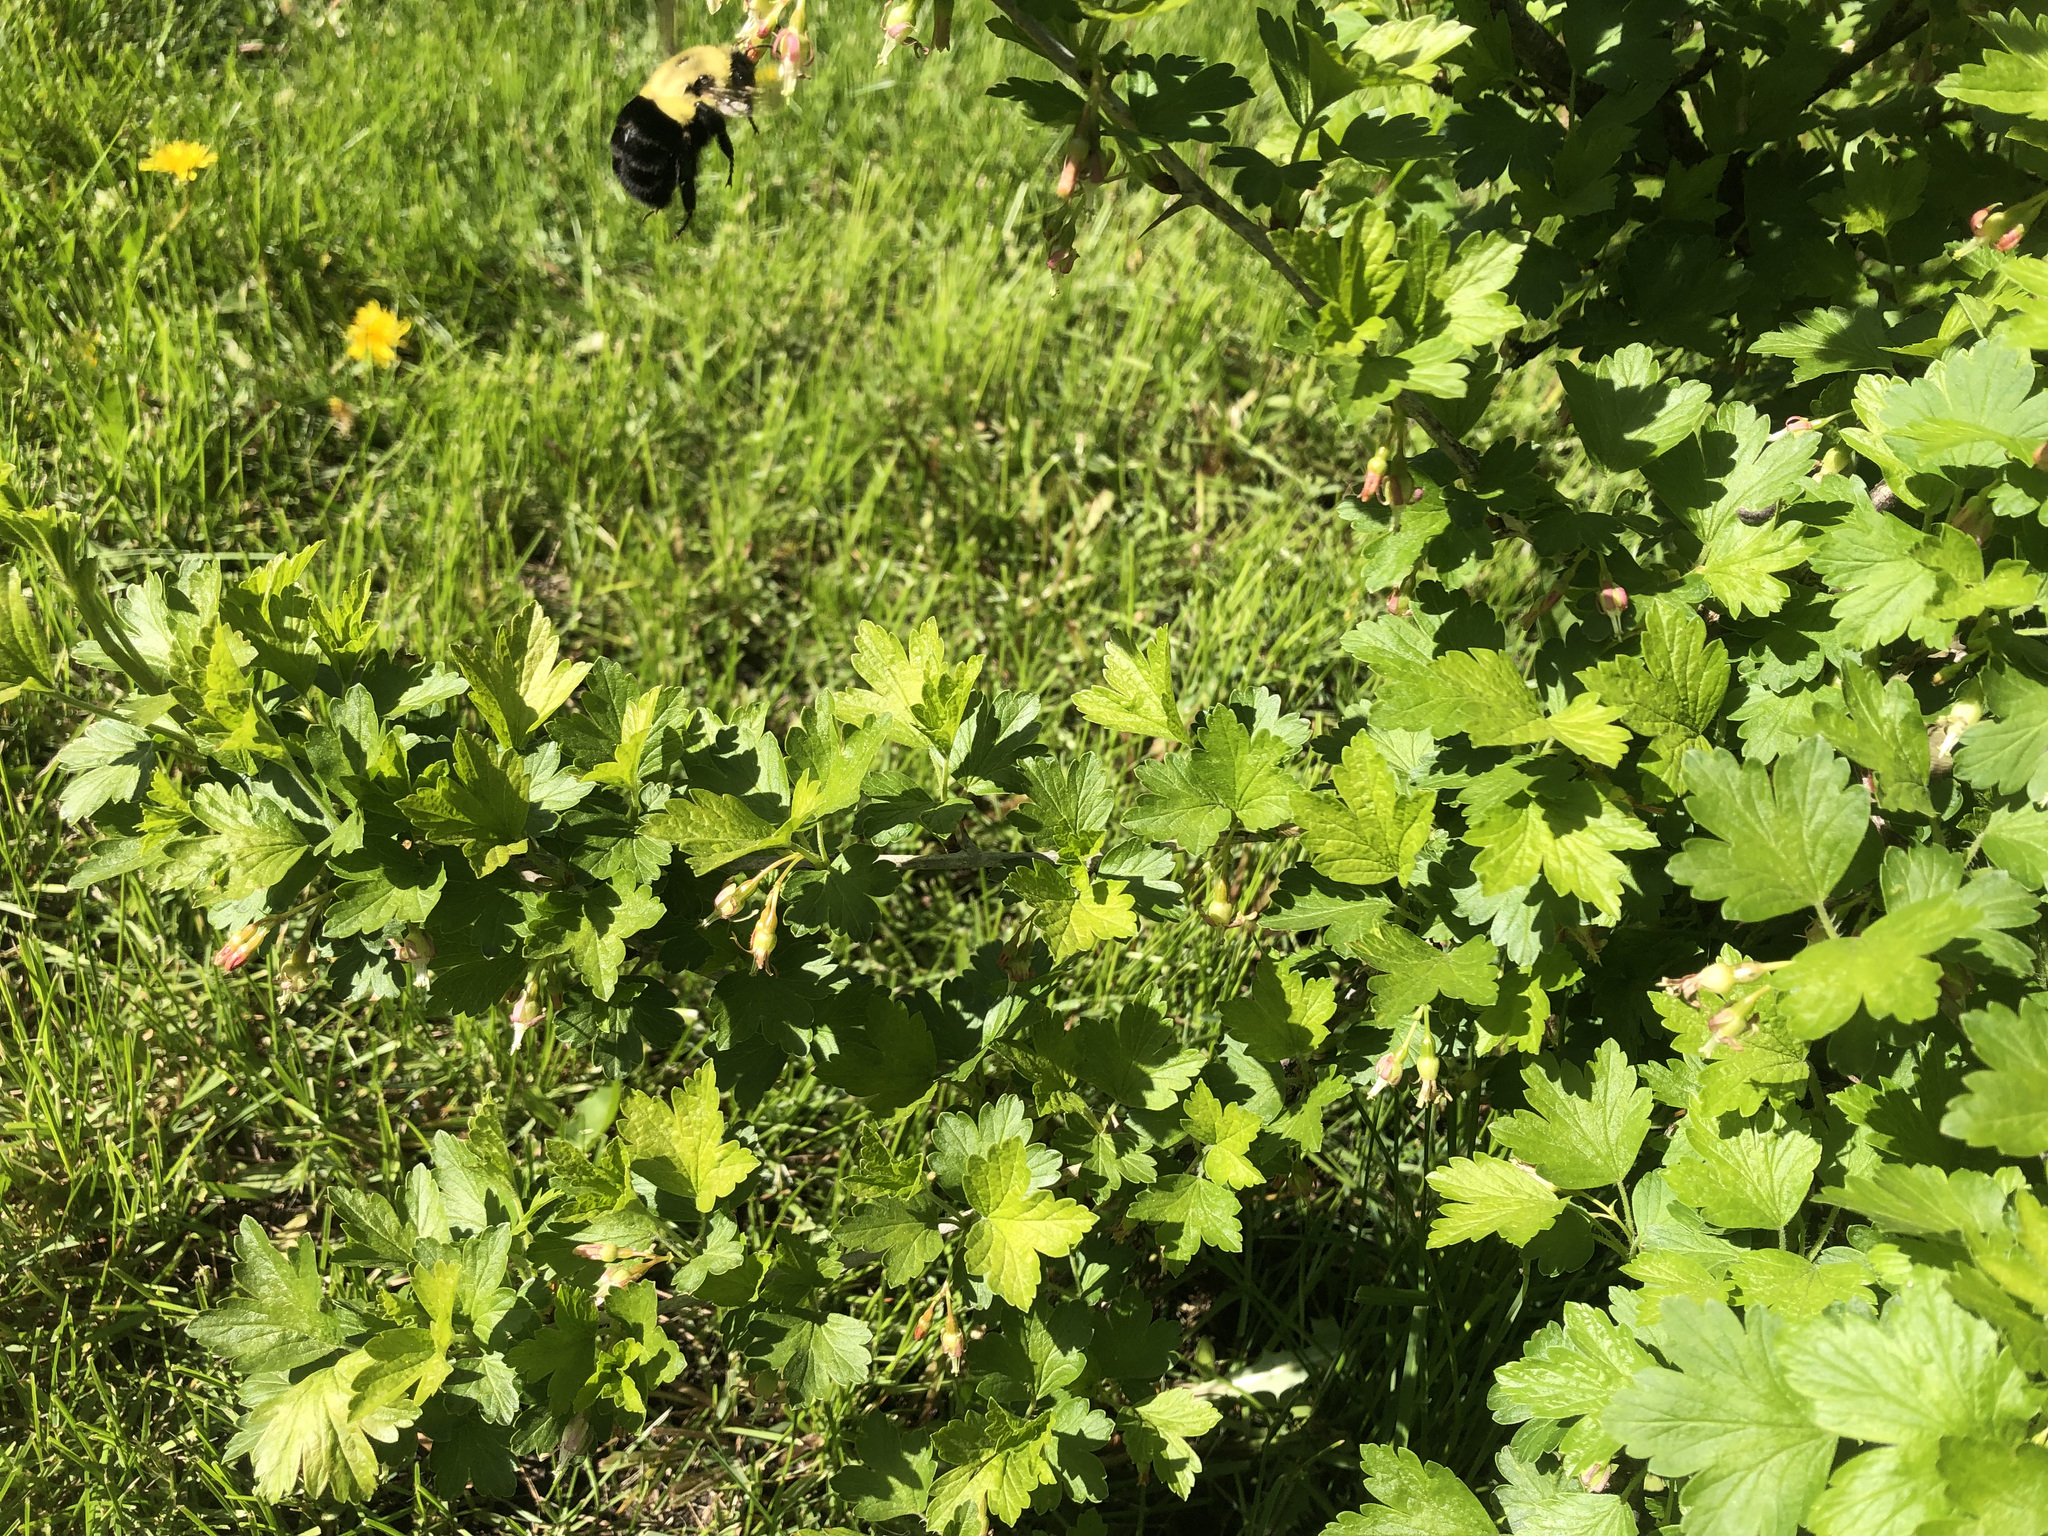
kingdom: Animalia
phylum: Arthropoda
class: Insecta
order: Hymenoptera
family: Apidae
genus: Bombus
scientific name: Bombus impatiens
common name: Common eastern bumble bee
